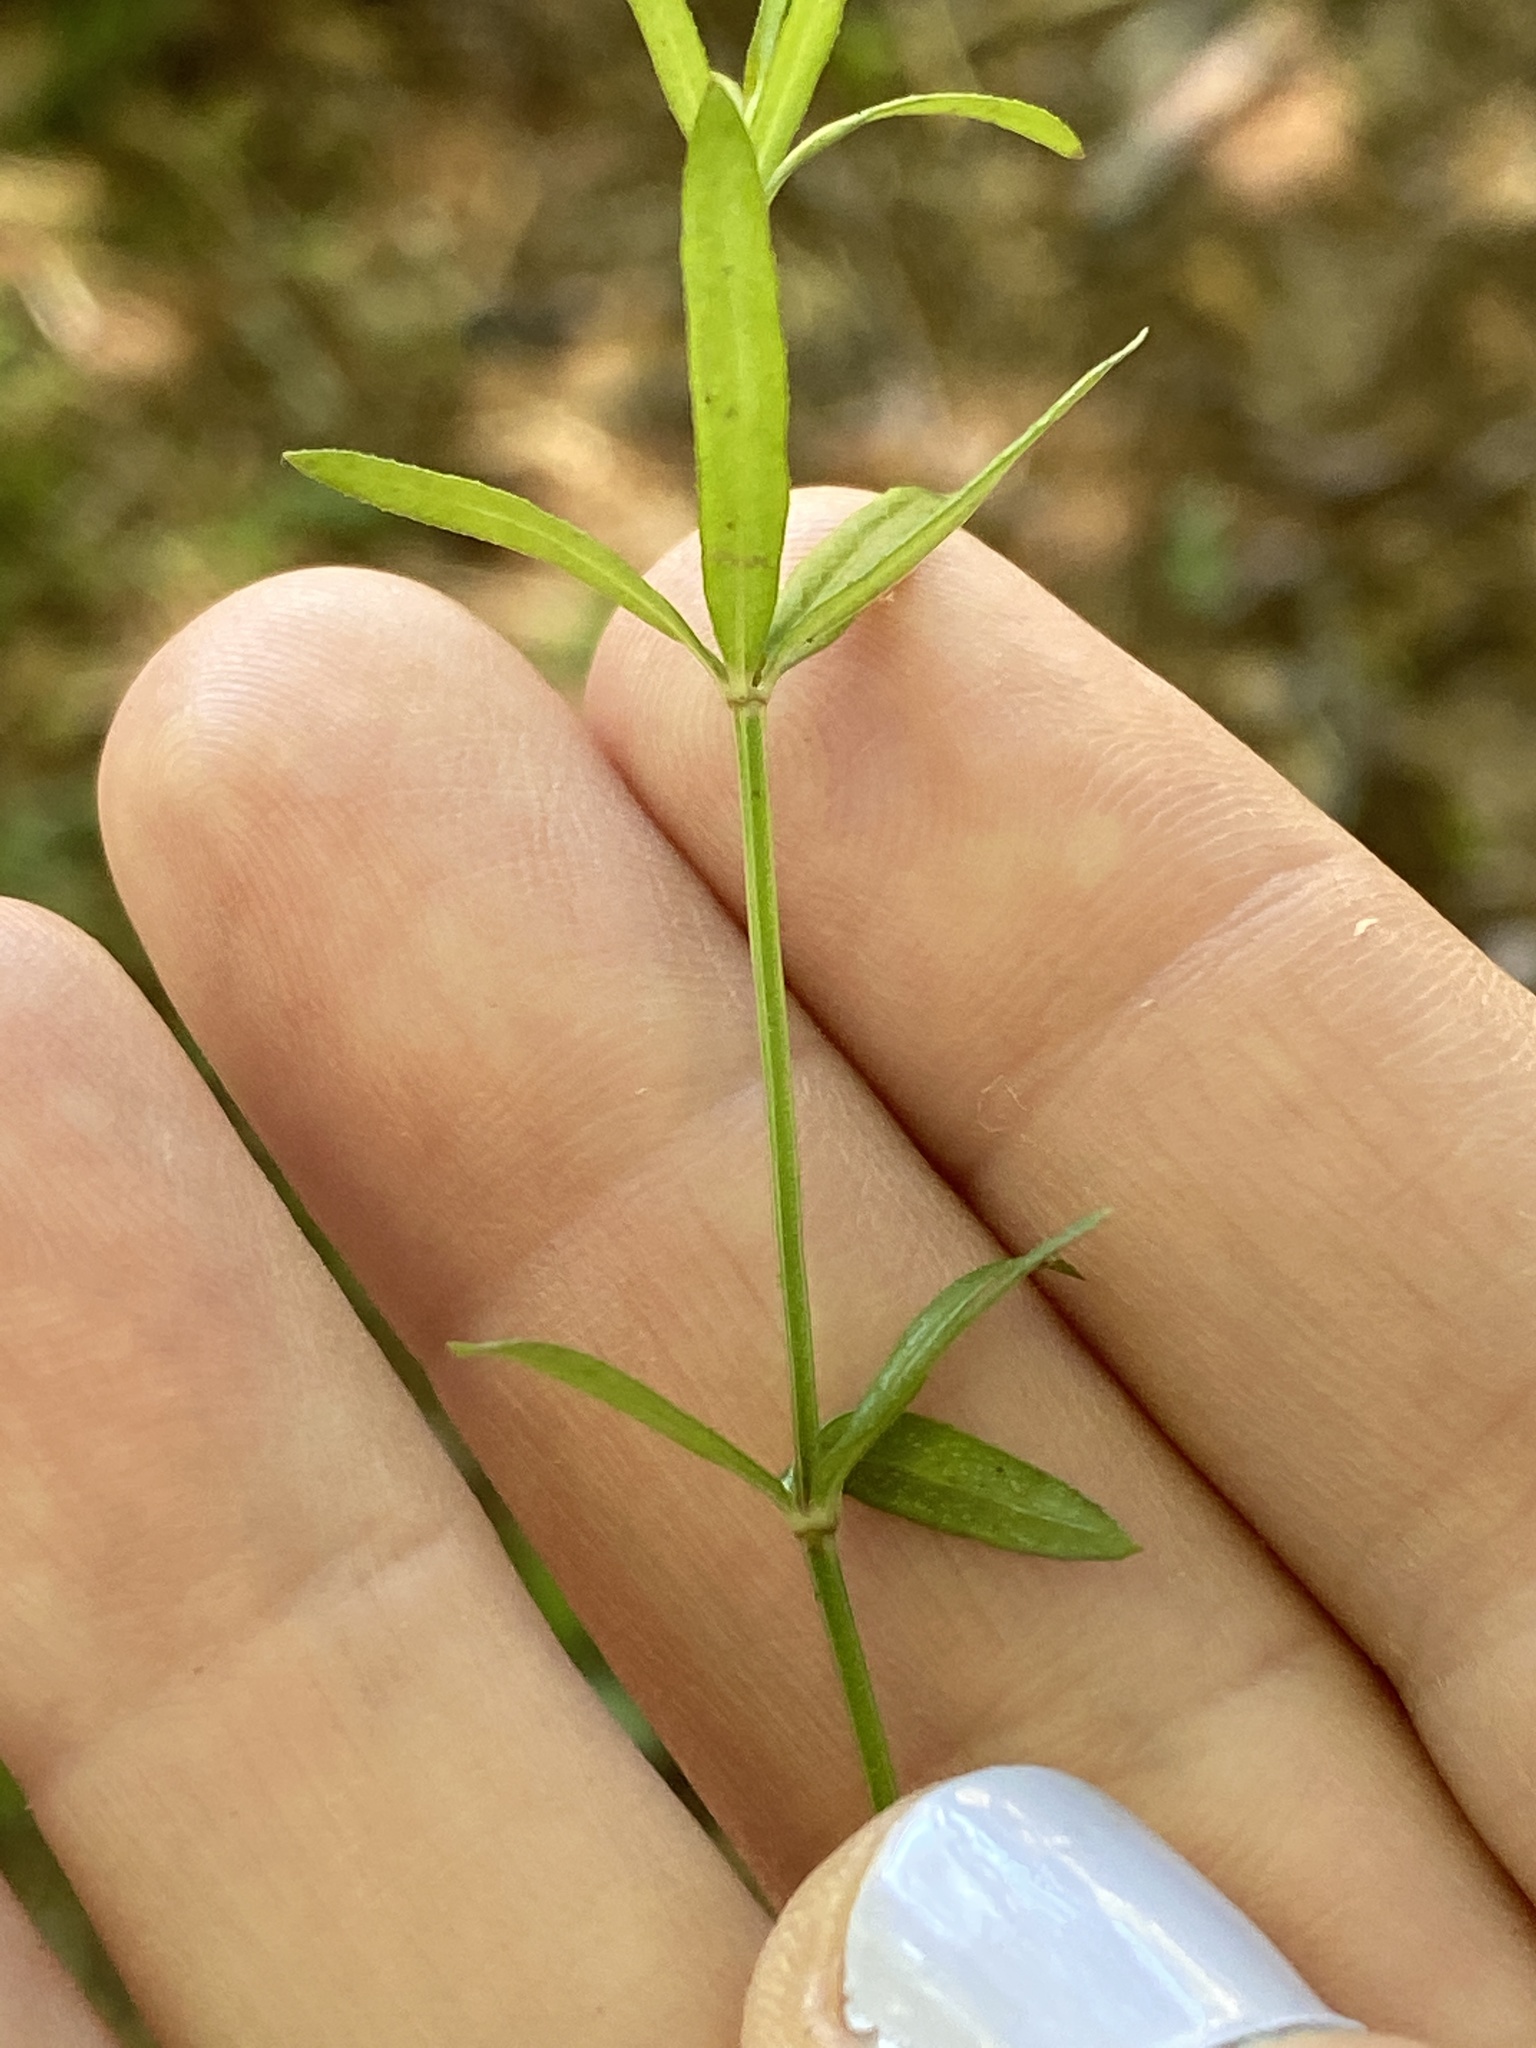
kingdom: Plantae
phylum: Tracheophyta
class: Magnoliopsida
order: Gentianales
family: Rubiaceae
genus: Galium
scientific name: Galium uniflorum
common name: One-flower bedstraw
